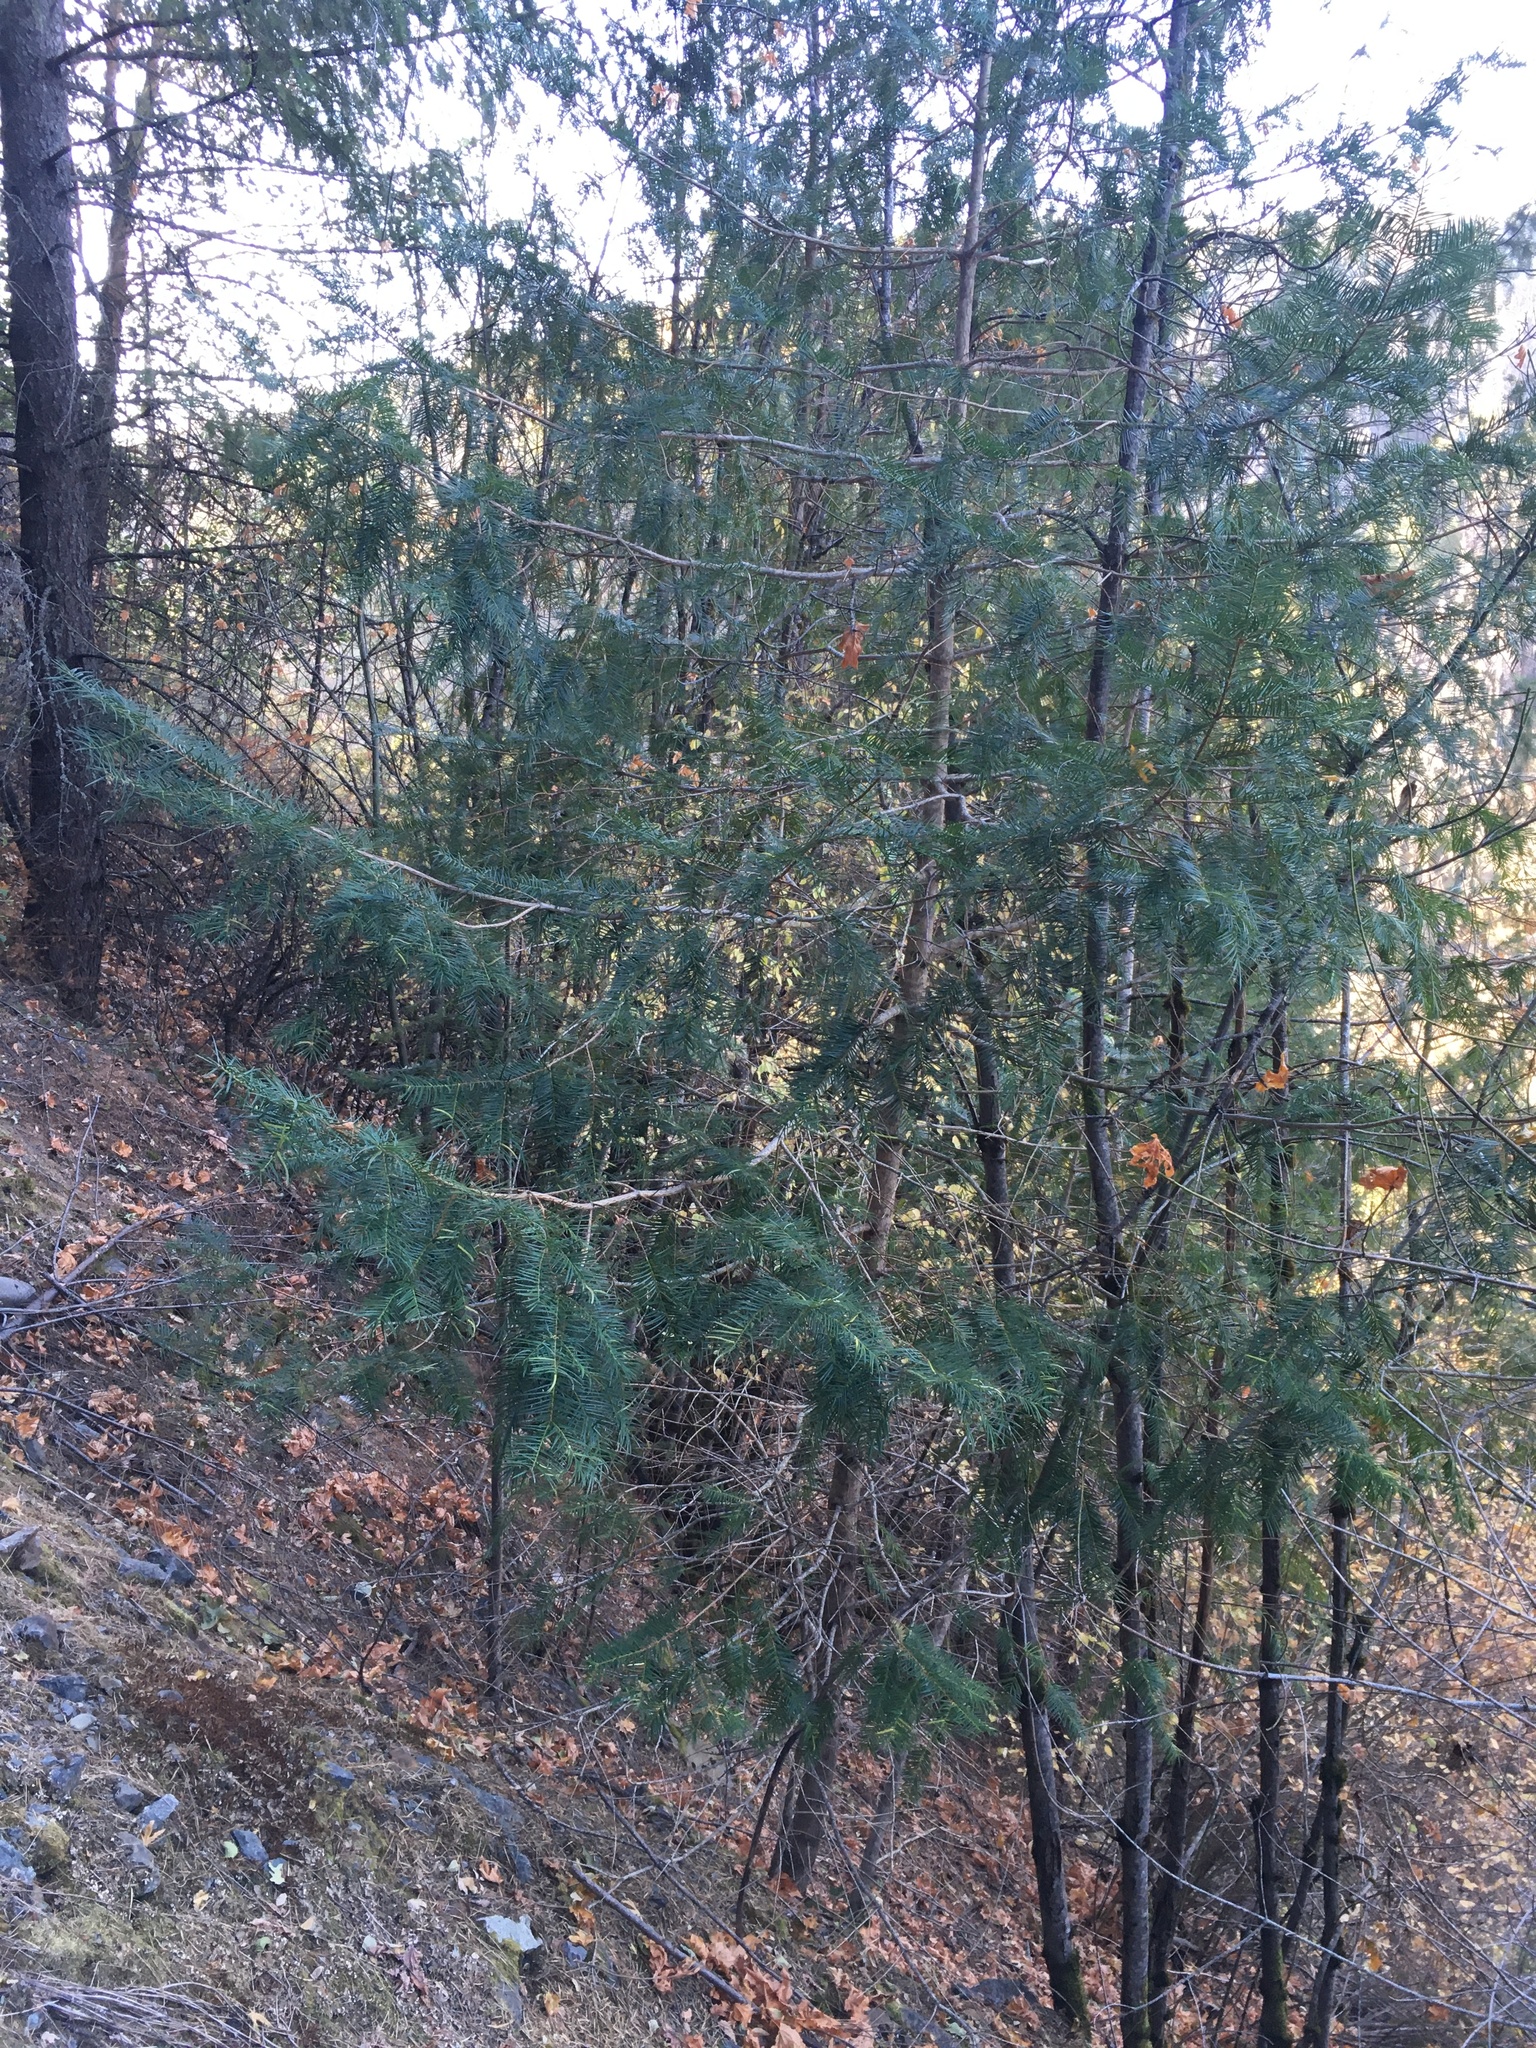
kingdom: Plantae
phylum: Tracheophyta
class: Pinopsida
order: Pinales
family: Taxaceae
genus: Torreya
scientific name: Torreya californica
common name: California torreya
